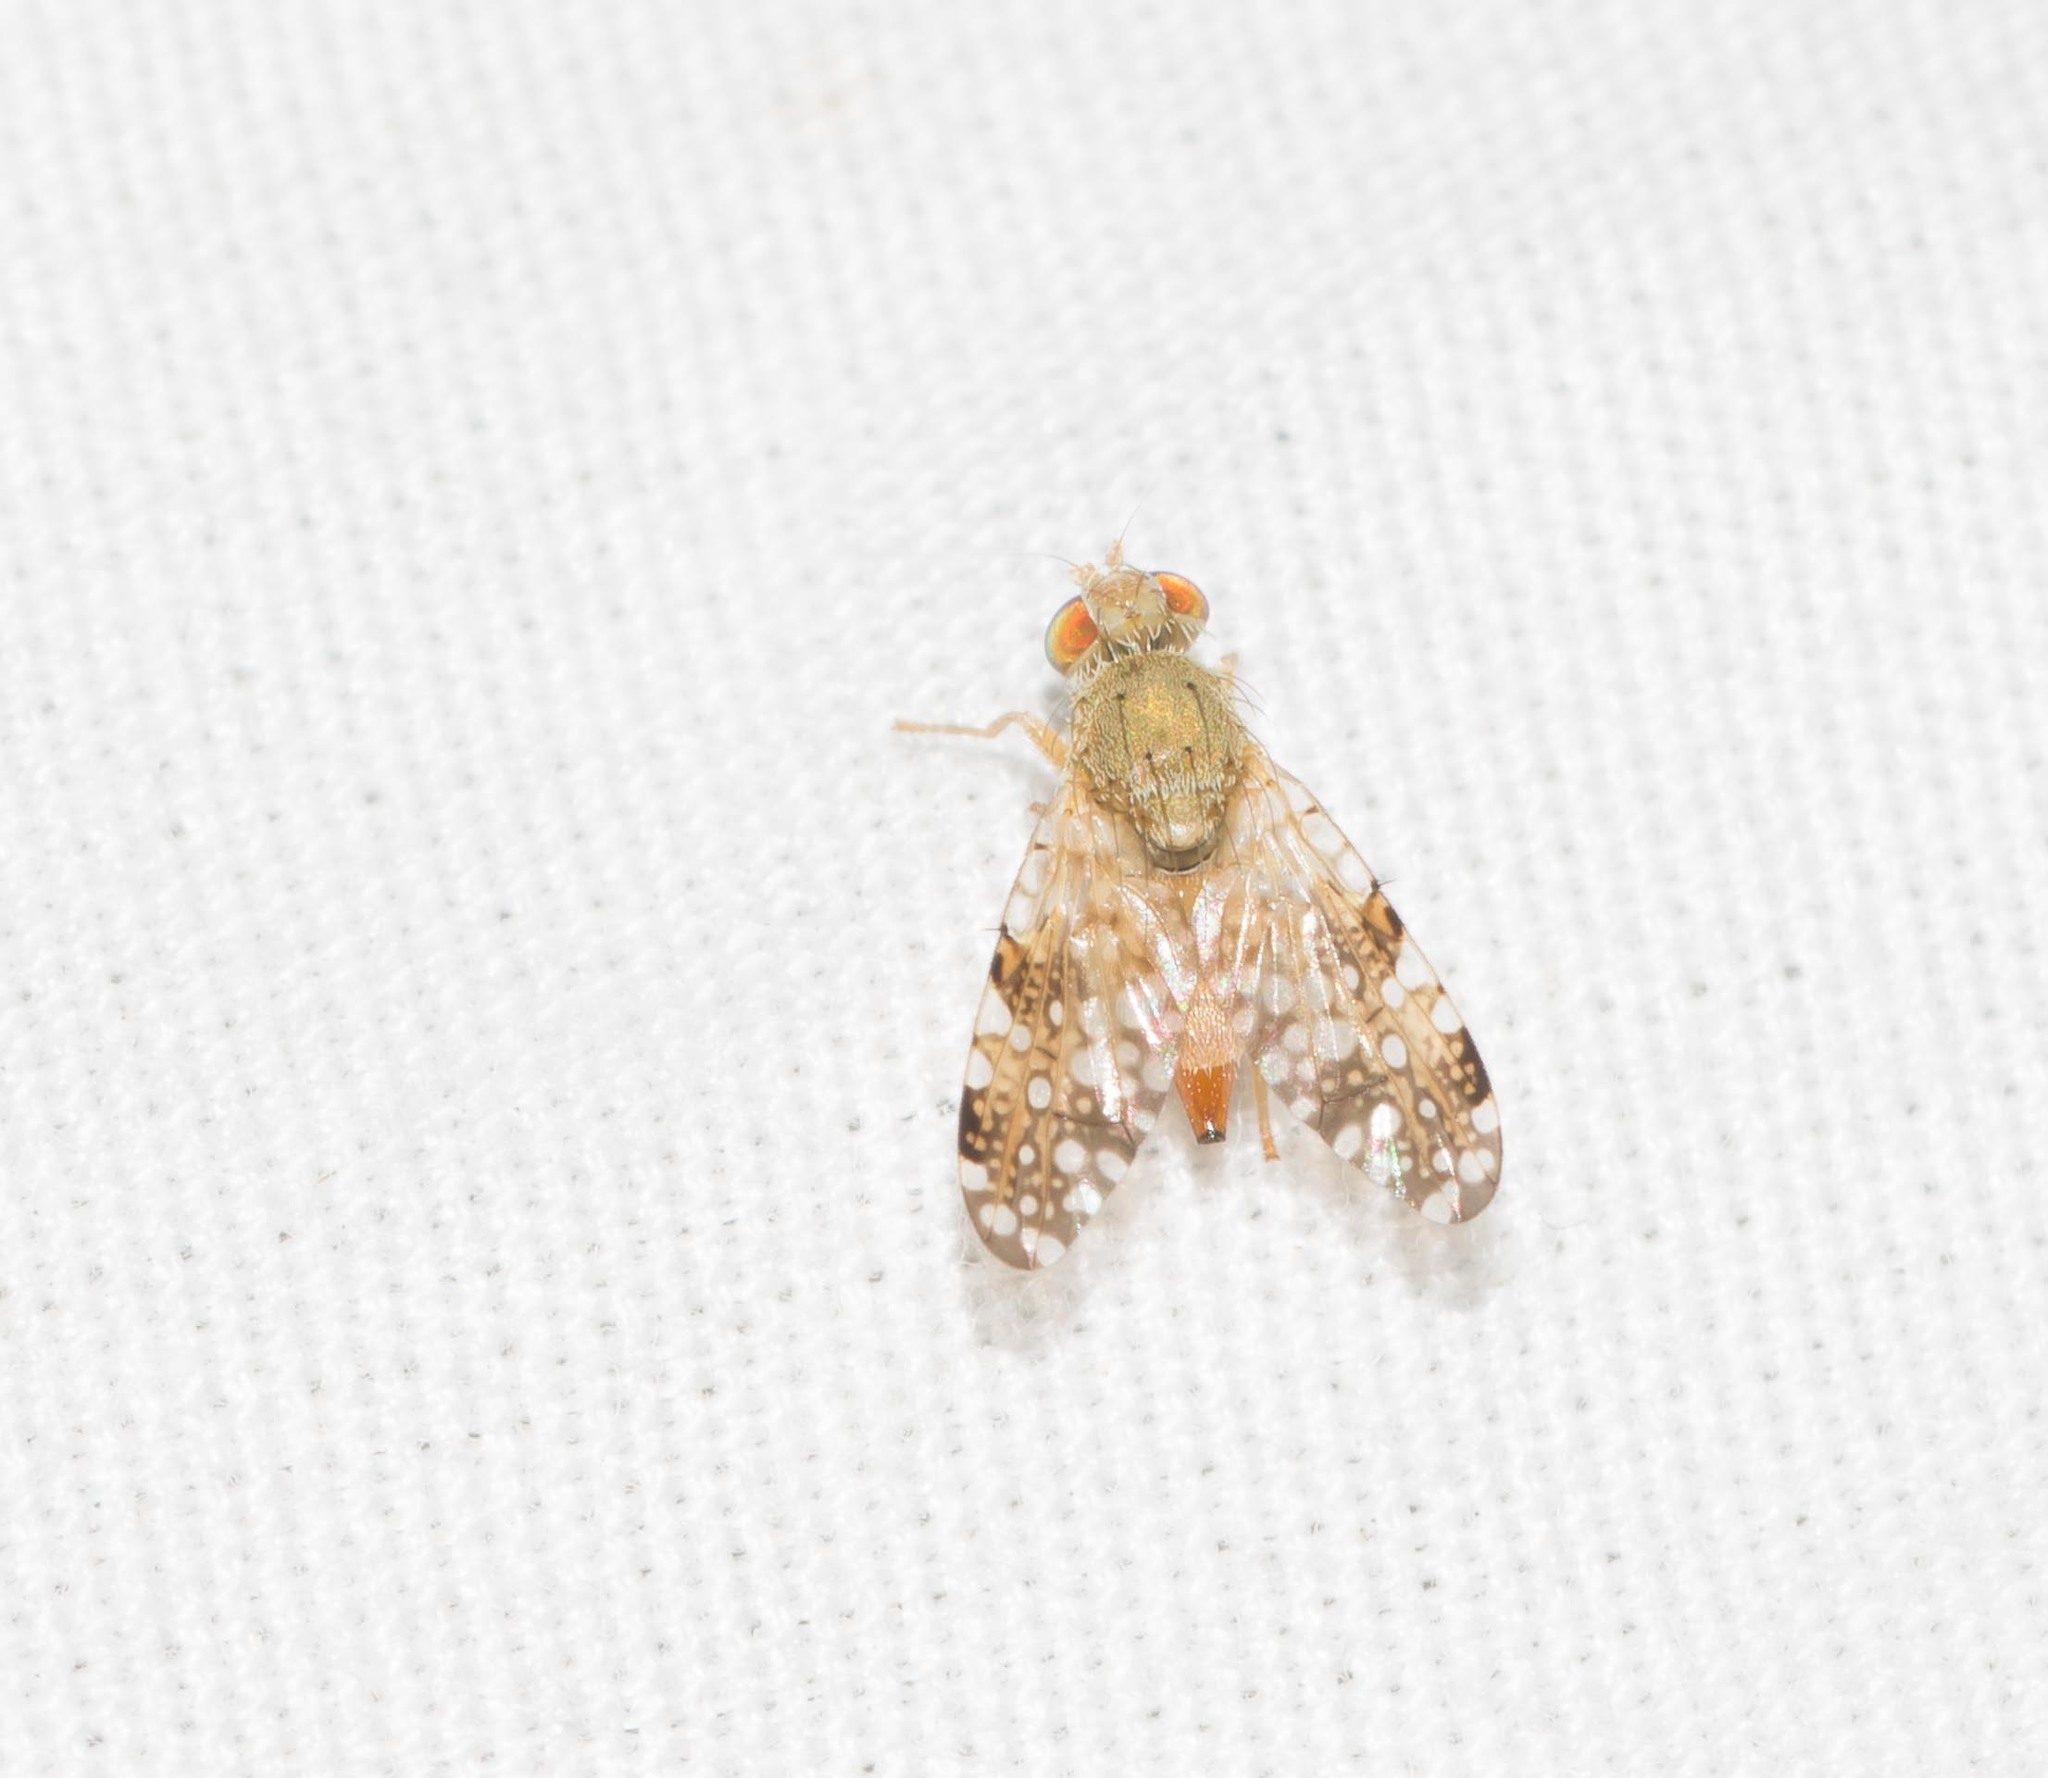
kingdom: Animalia
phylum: Arthropoda
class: Insecta
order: Diptera
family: Tephritidae
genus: Acinia
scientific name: Acinia picturata
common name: Sourbush seed fly
